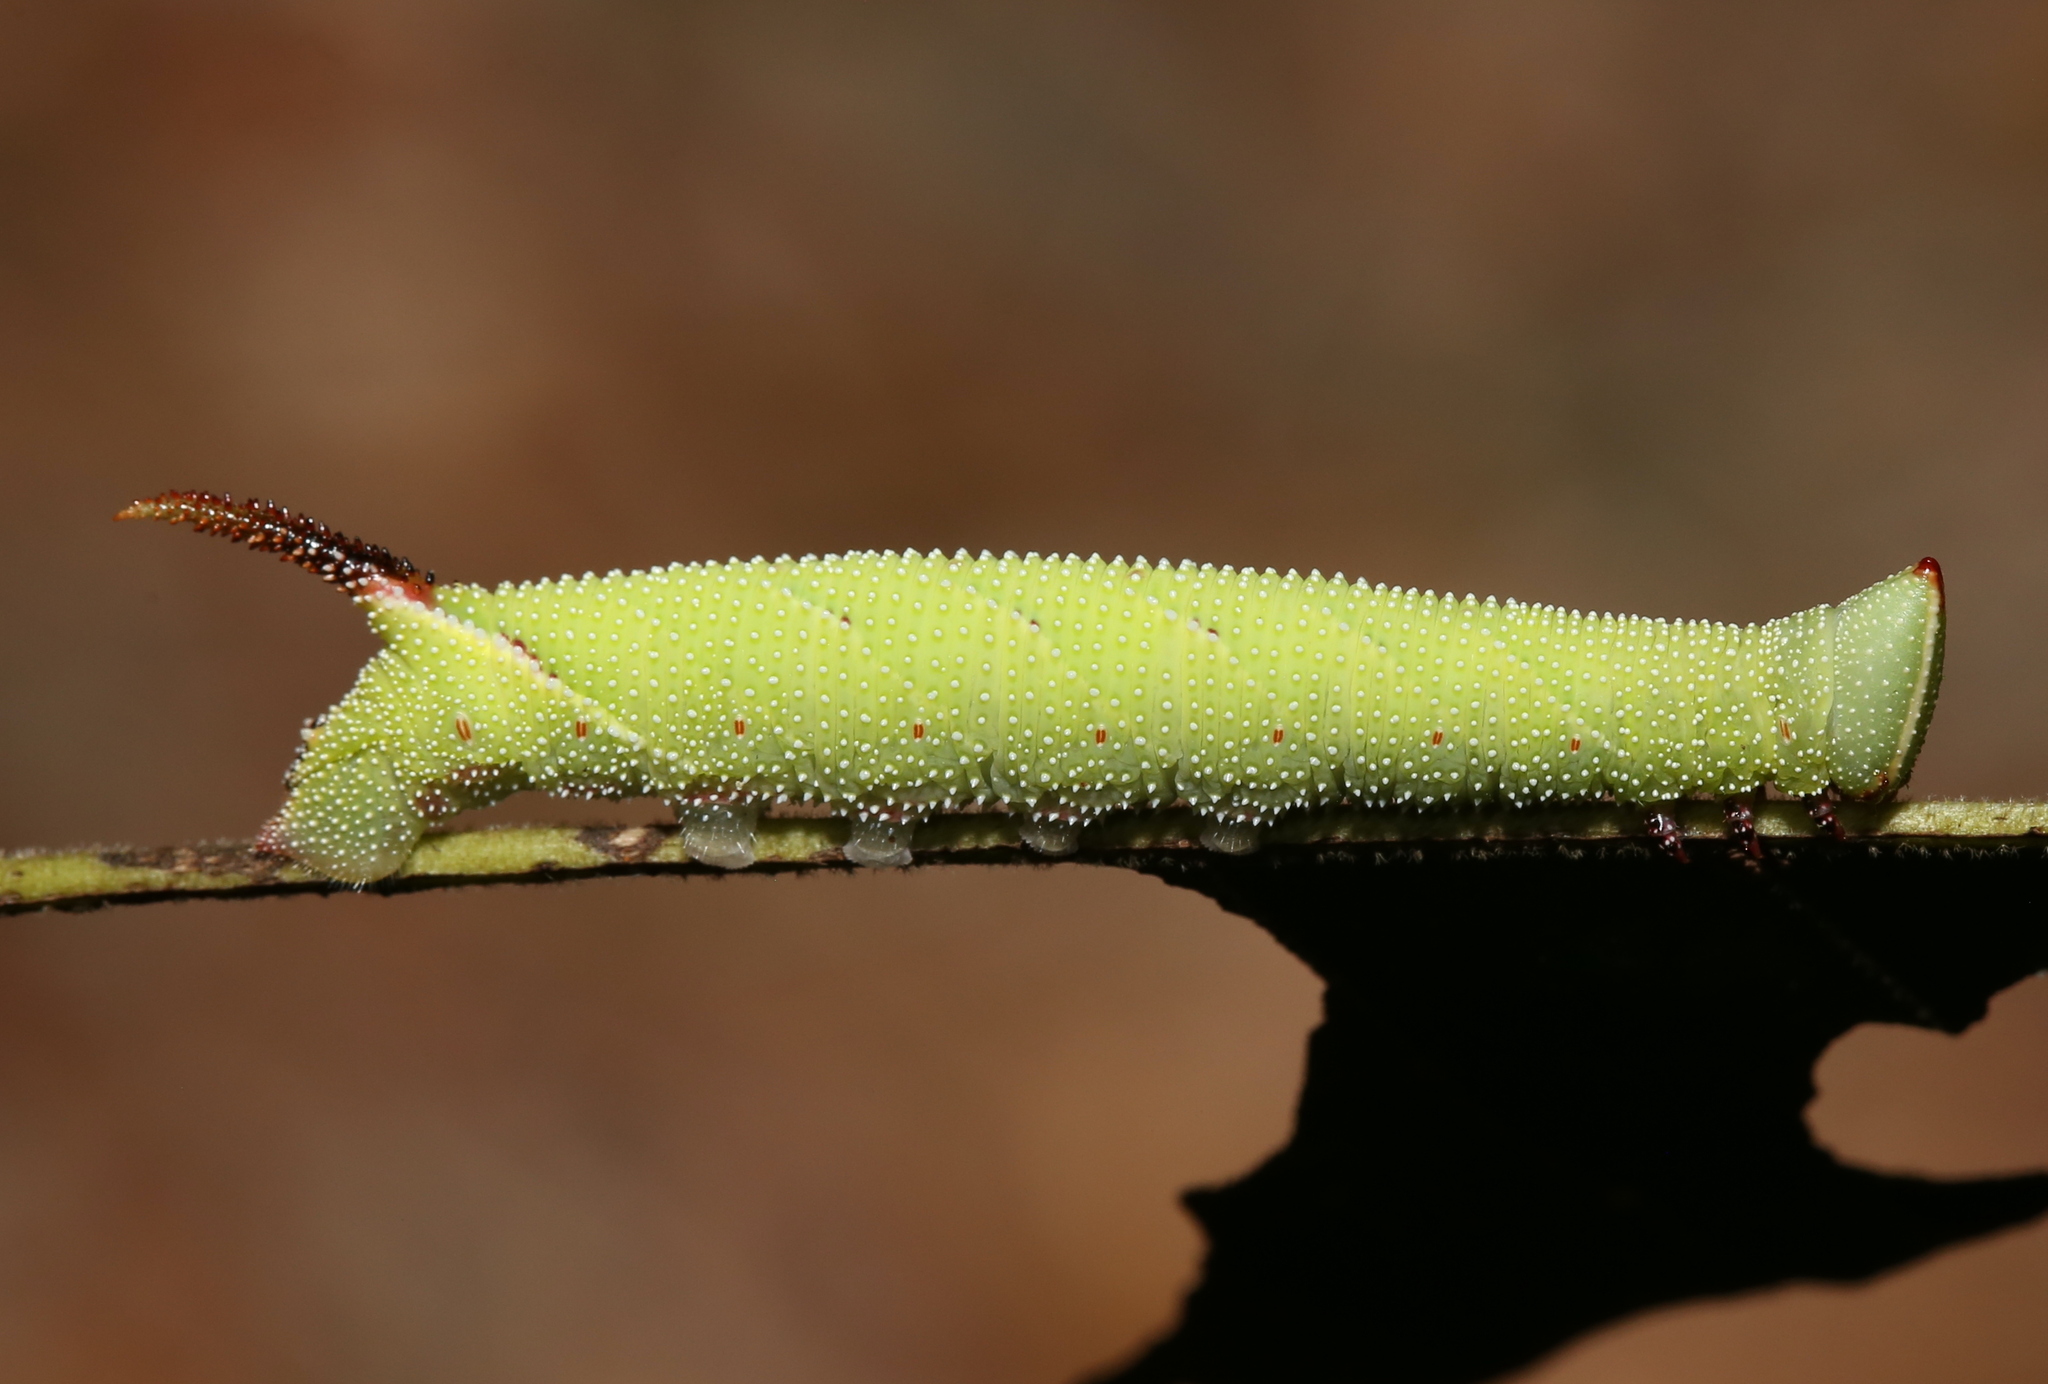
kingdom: Animalia
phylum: Arthropoda
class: Insecta
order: Lepidoptera
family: Sphingidae
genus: Amorpha
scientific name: Amorpha juglandis
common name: Walnut sphinx
